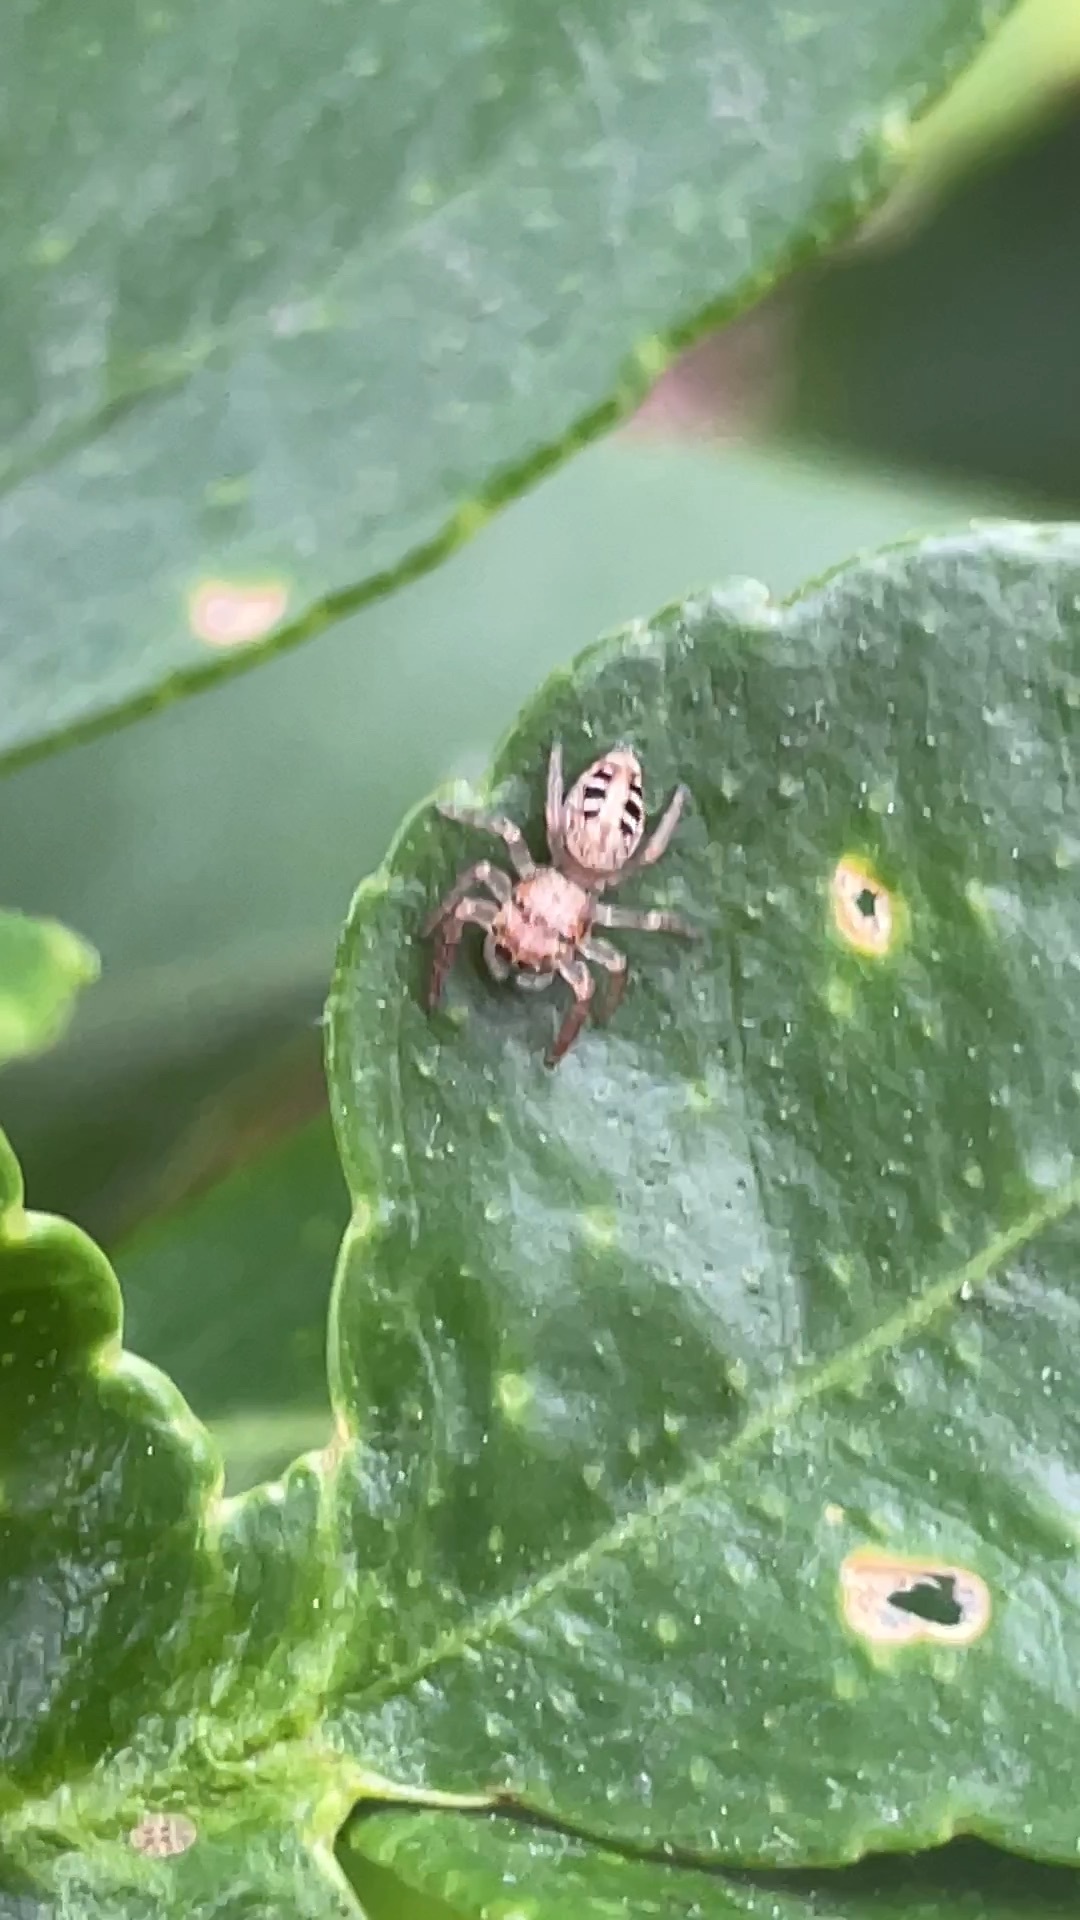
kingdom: Animalia
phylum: Arthropoda
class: Arachnida
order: Araneae
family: Salticidae
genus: Opisthoncus
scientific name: Opisthoncus sexmaculatus
